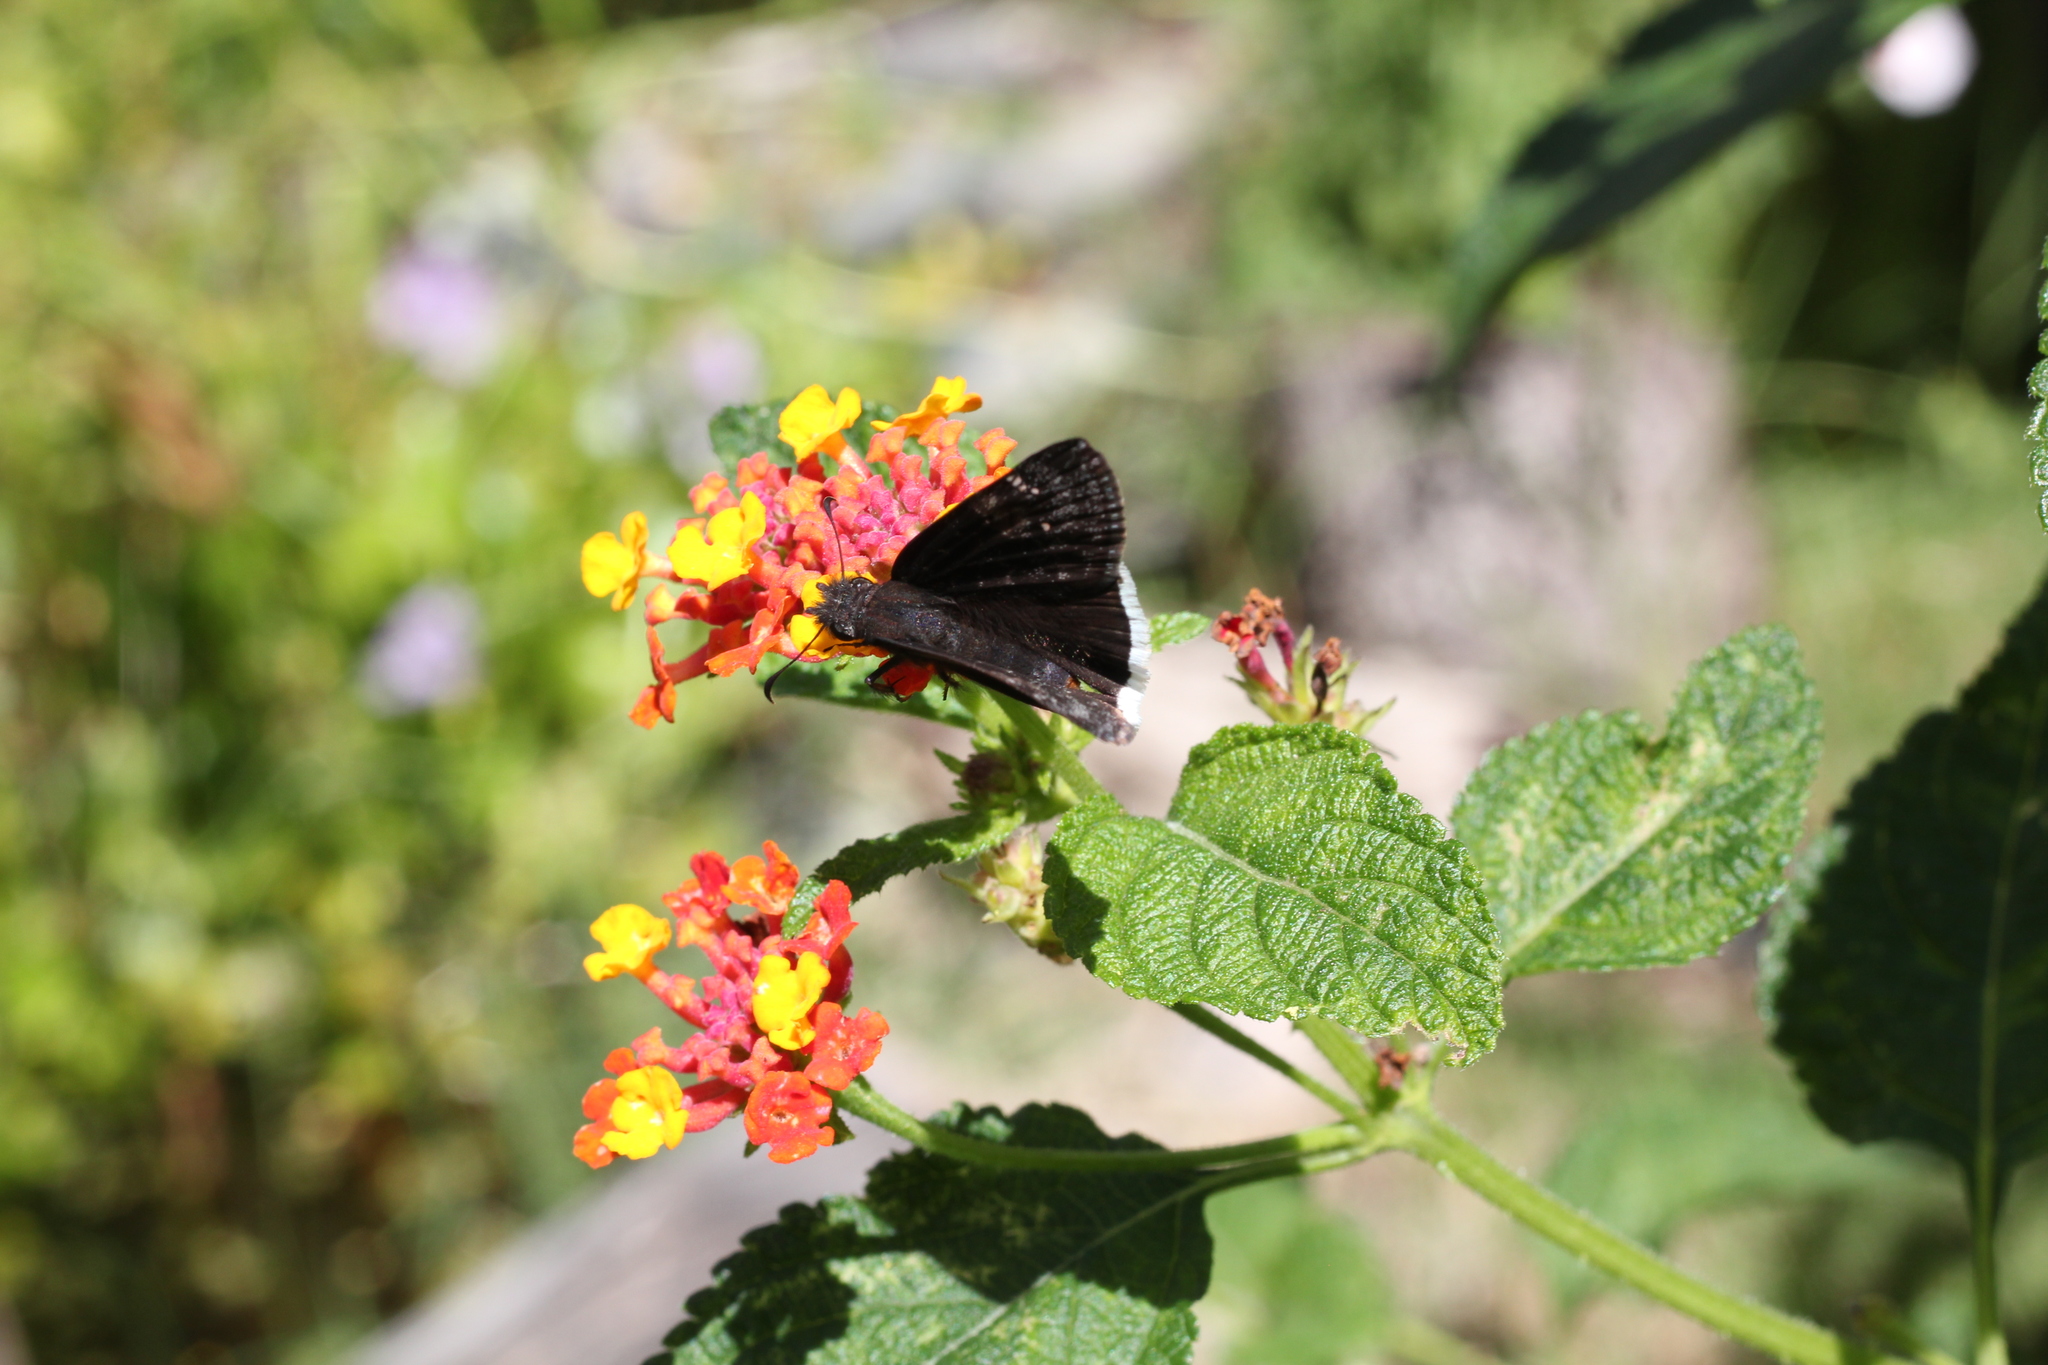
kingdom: Animalia
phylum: Arthropoda
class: Insecta
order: Lepidoptera
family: Hesperiidae
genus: Erynnis
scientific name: Erynnis funeralis
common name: Funereal duskywing
